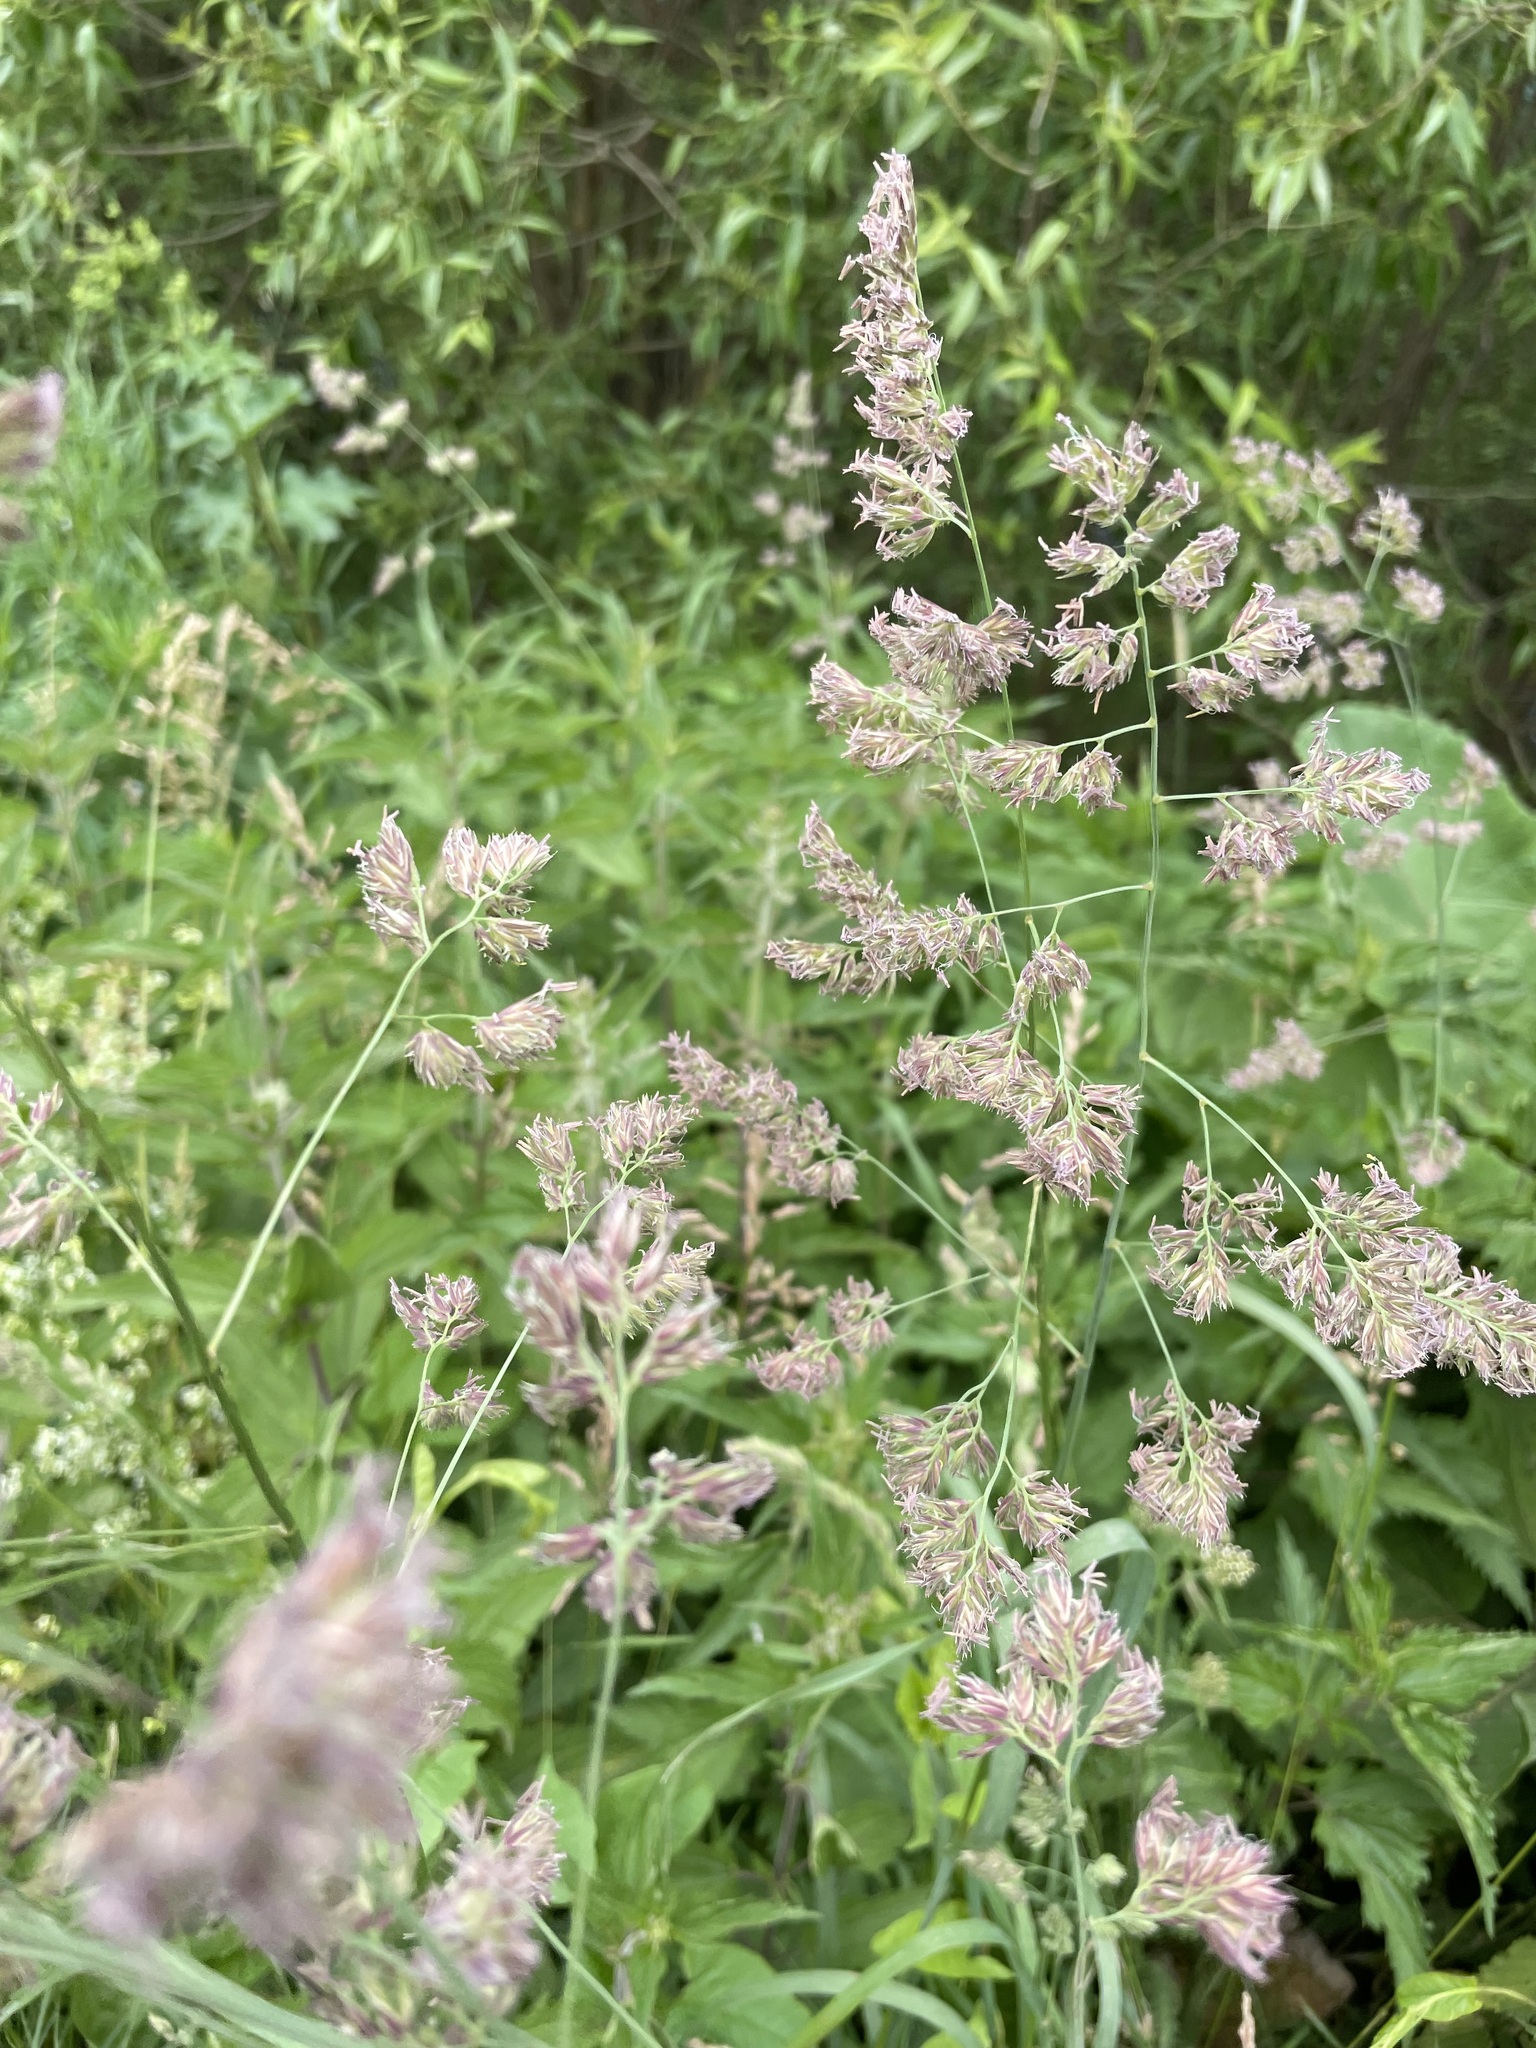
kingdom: Plantae
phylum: Tracheophyta
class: Liliopsida
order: Poales
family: Poaceae
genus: Dactylis
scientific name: Dactylis glomerata
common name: Orchardgrass
